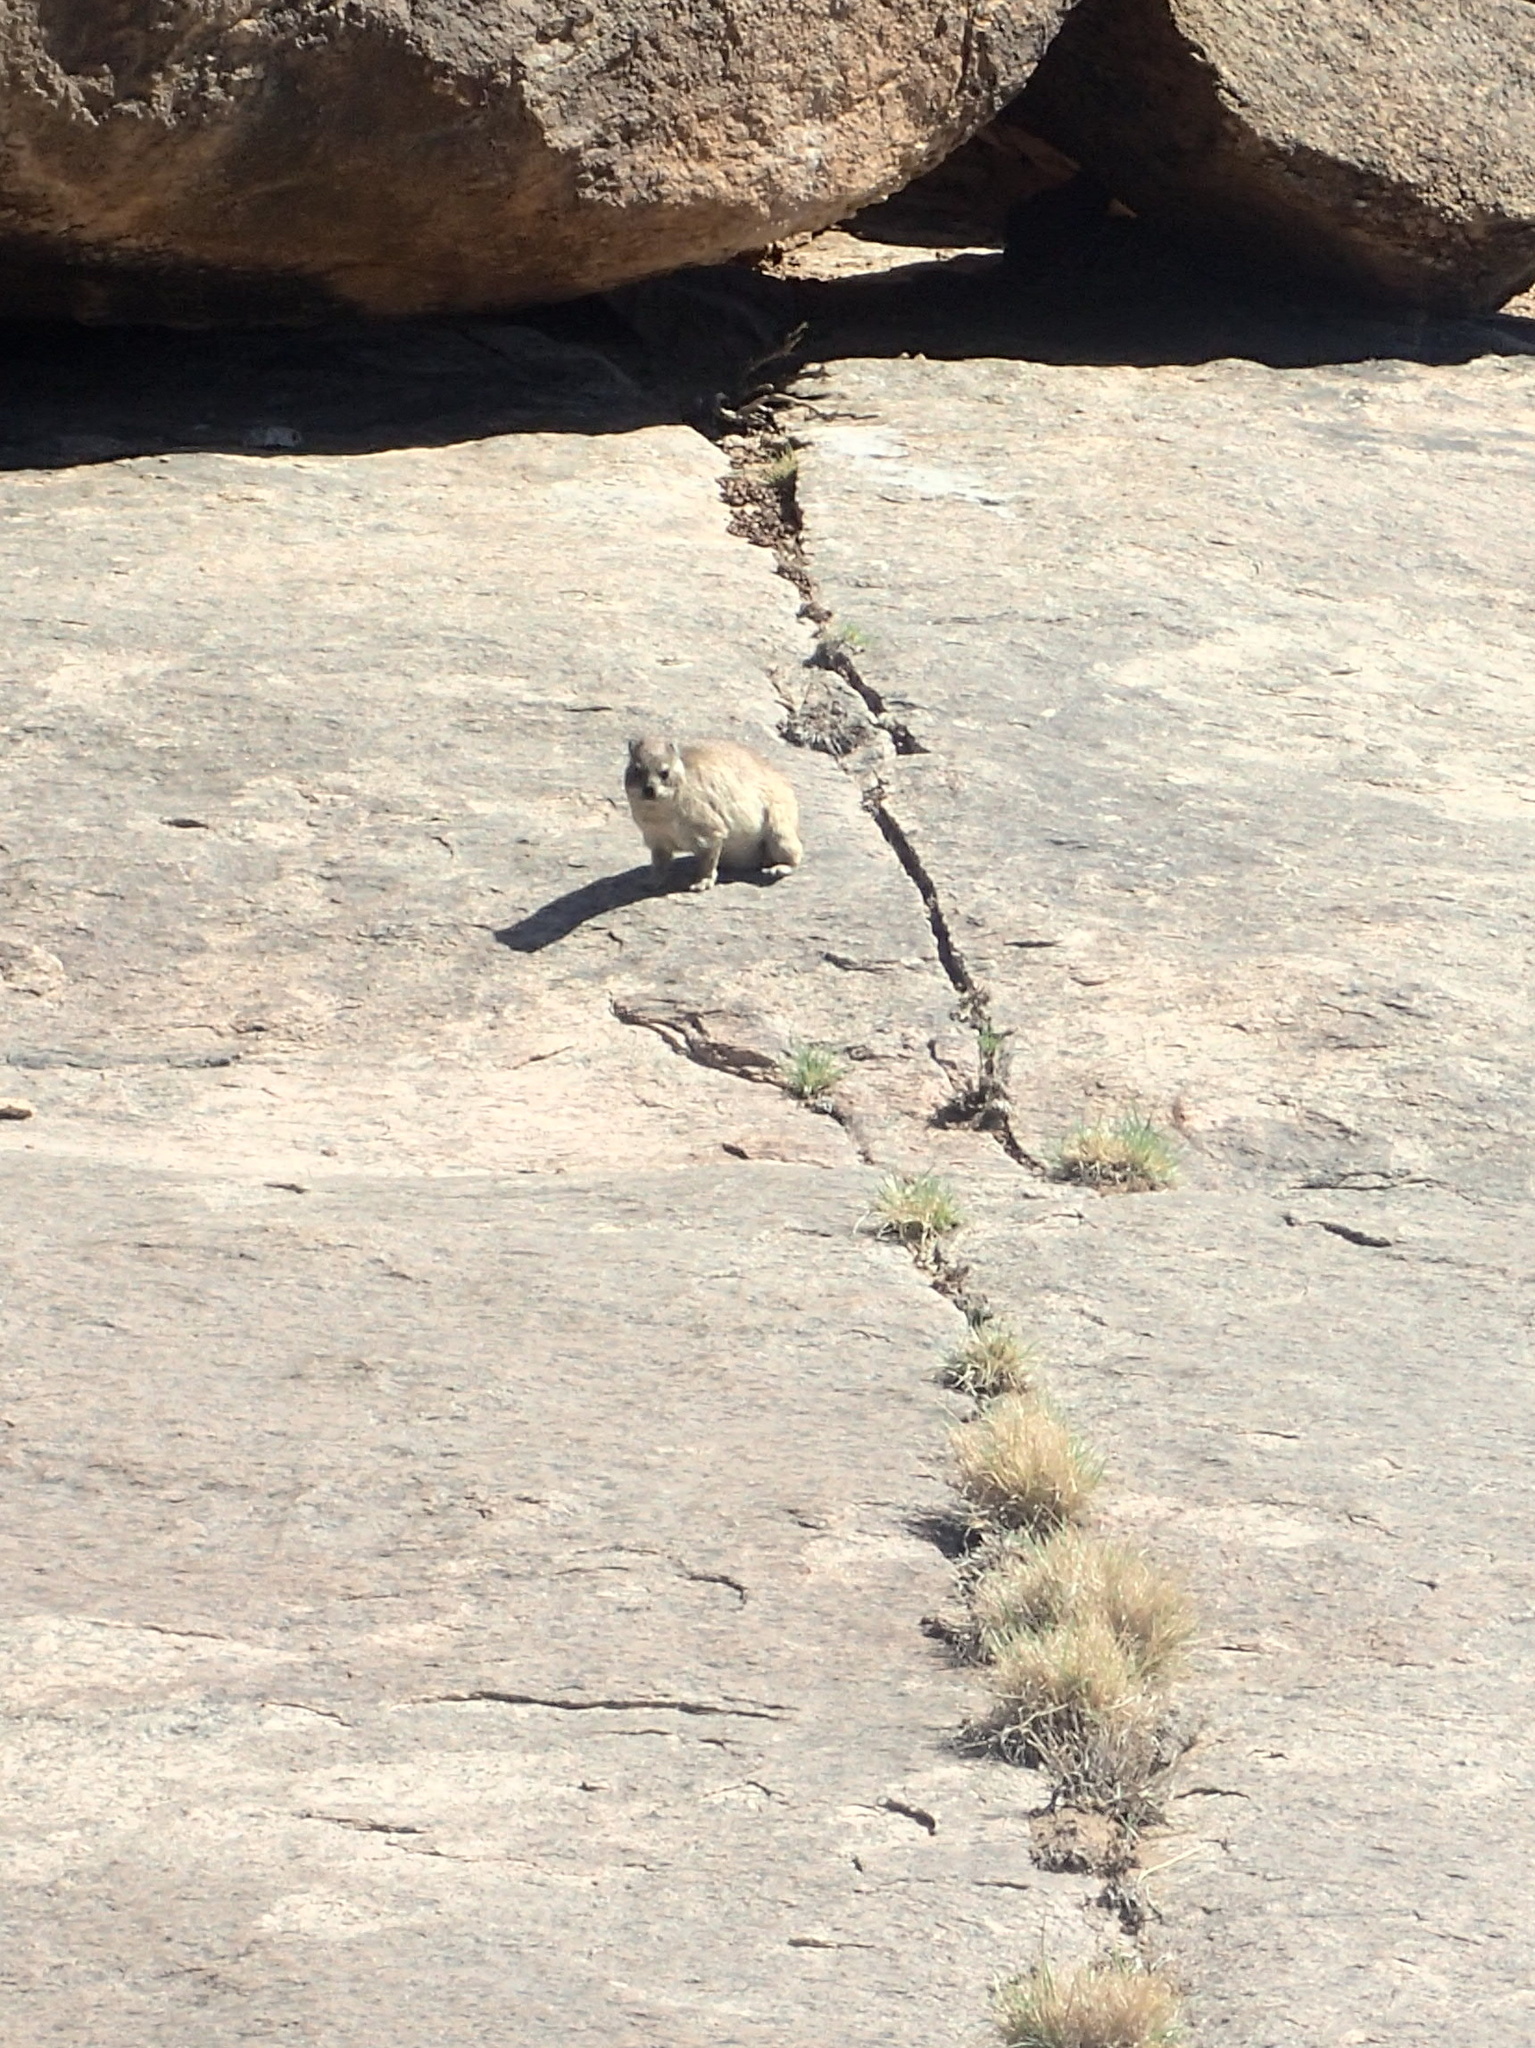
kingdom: Animalia
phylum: Chordata
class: Mammalia
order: Hyracoidea
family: Procaviidae
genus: Procavia
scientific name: Procavia capensis
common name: Rock hyrax
